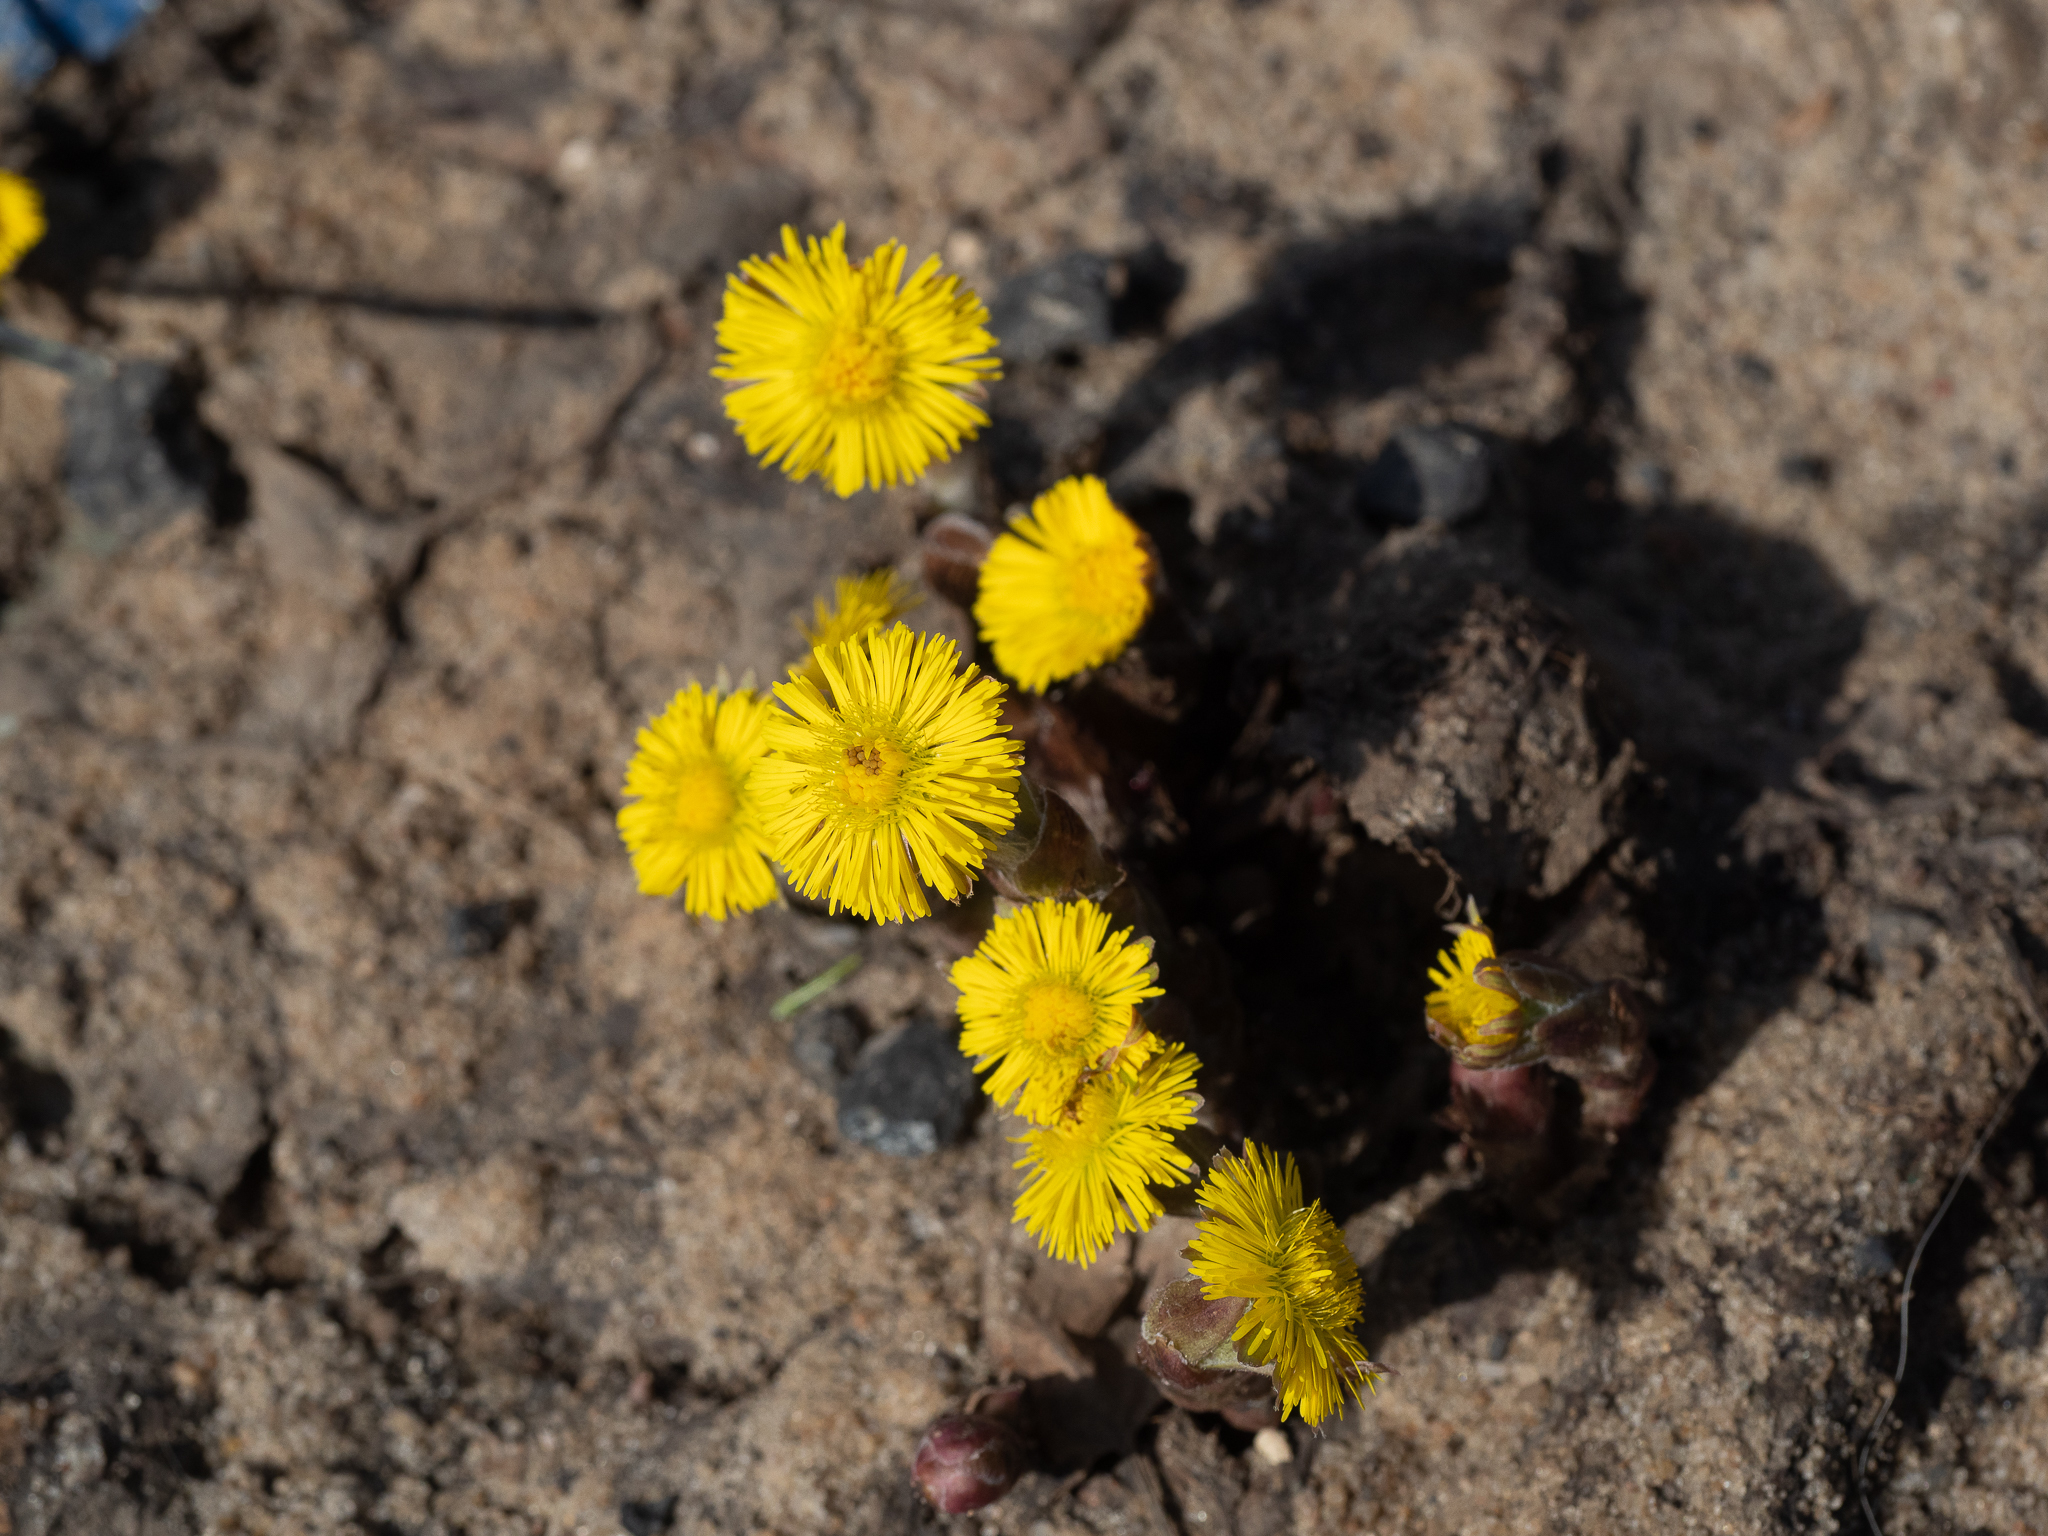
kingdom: Plantae
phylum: Tracheophyta
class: Magnoliopsida
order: Asterales
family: Asteraceae
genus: Tussilago
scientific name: Tussilago farfara
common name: Coltsfoot
